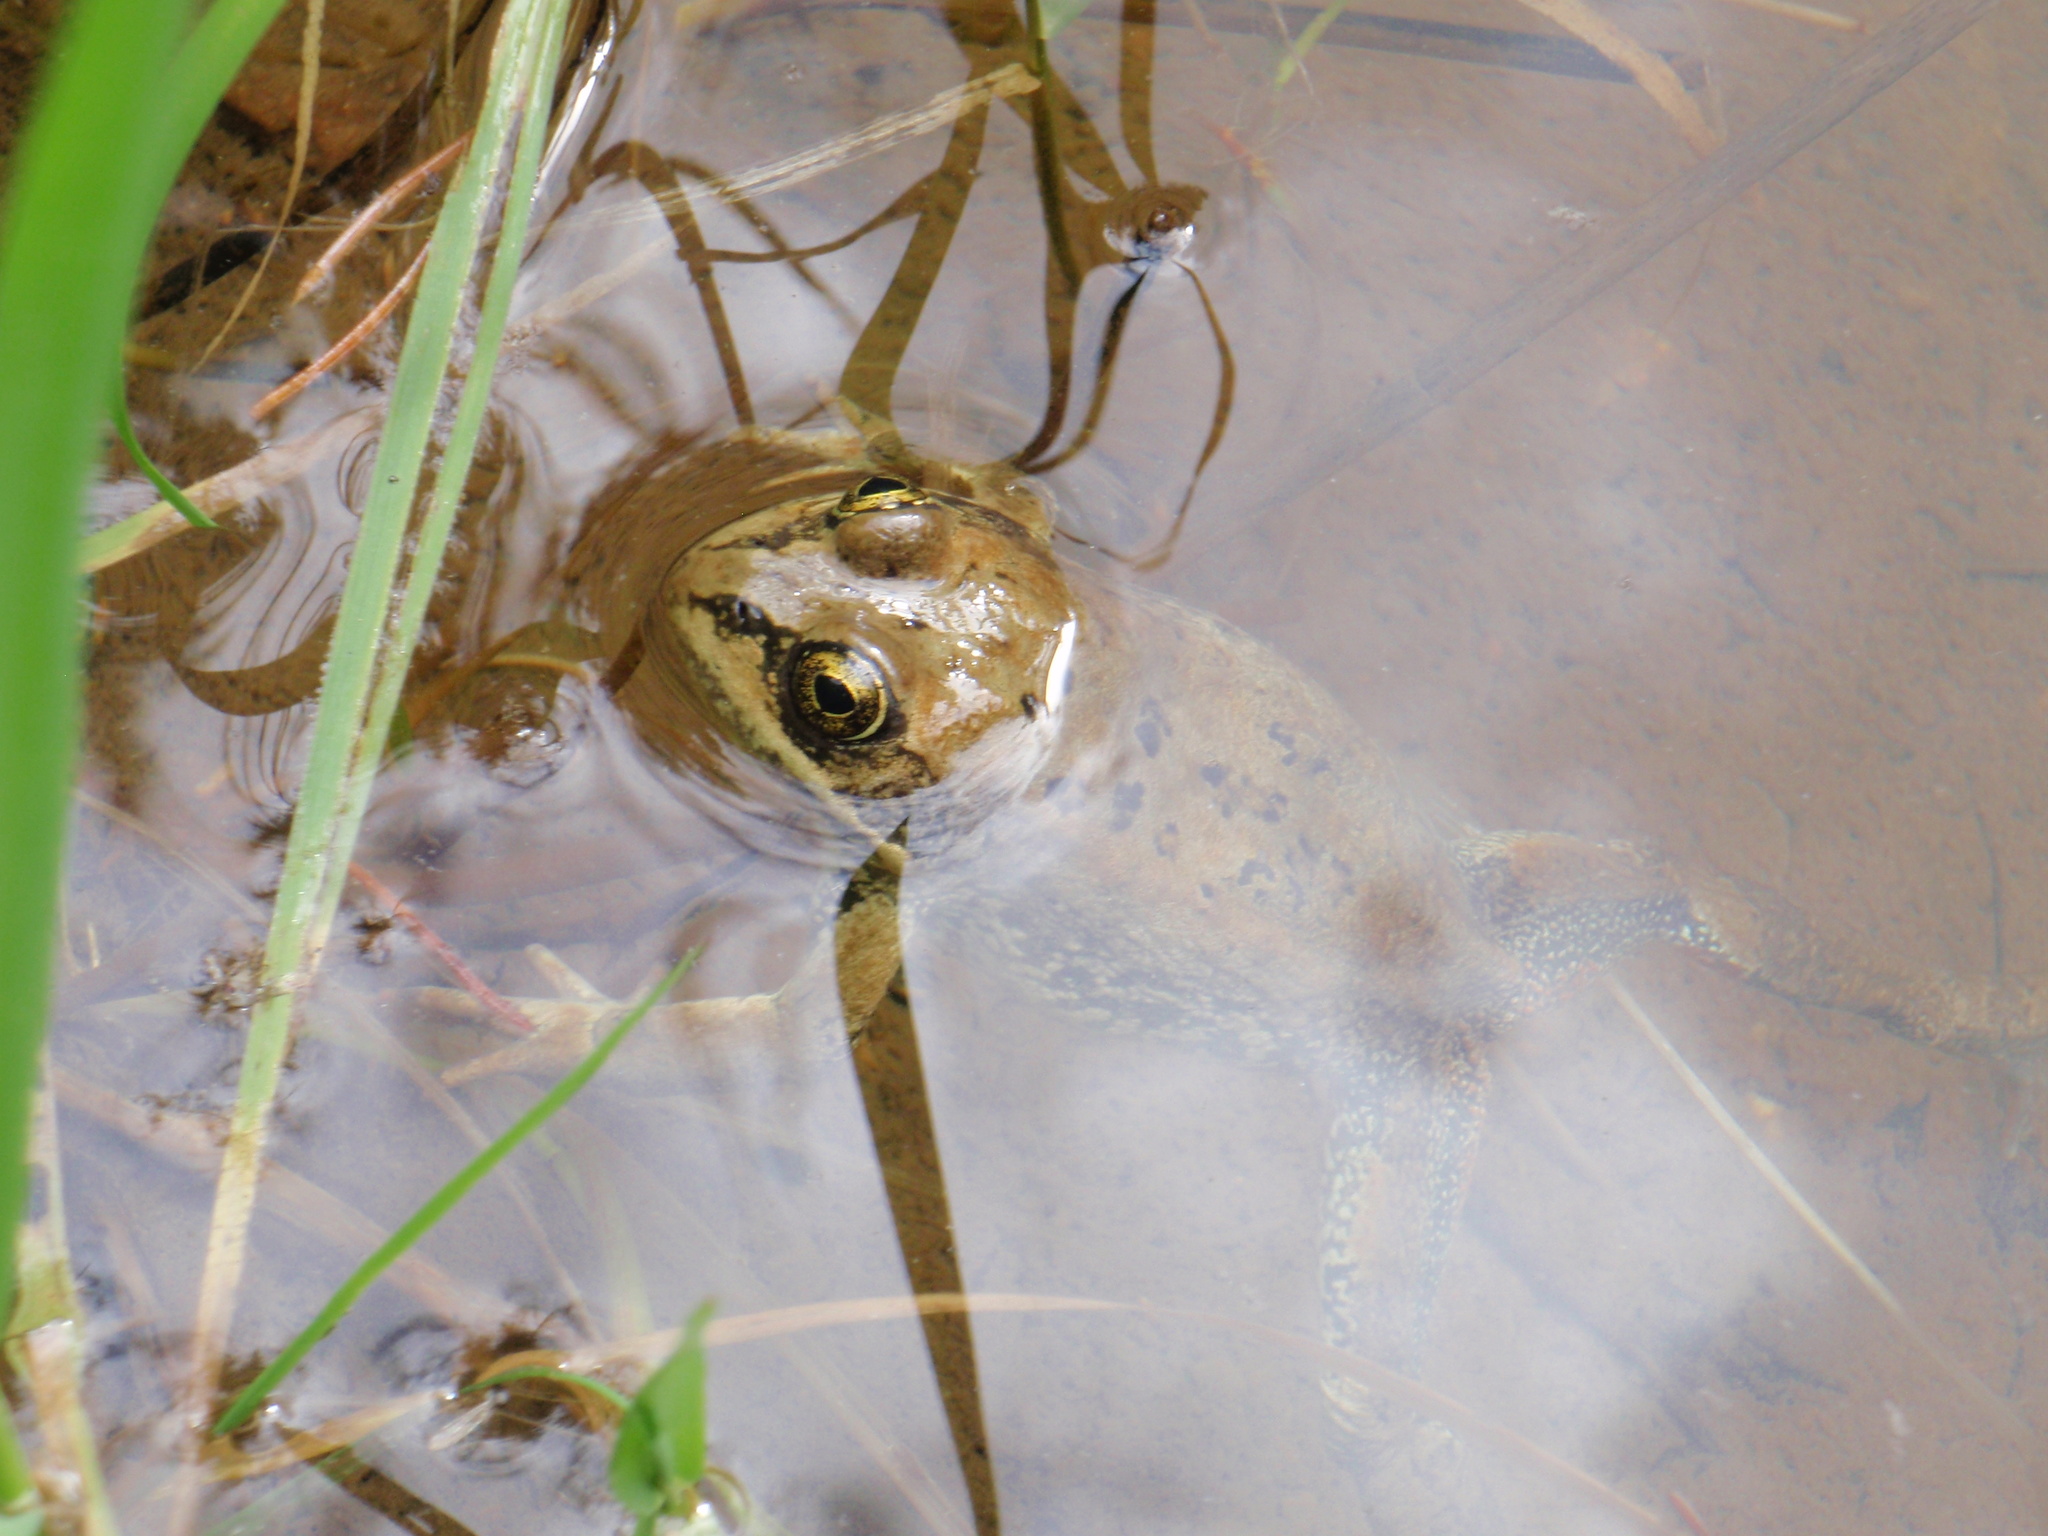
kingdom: Animalia
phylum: Chordata
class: Amphibia
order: Anura
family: Ranidae
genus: Rana
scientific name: Rana luteiventris
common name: Columbia spotted frog
